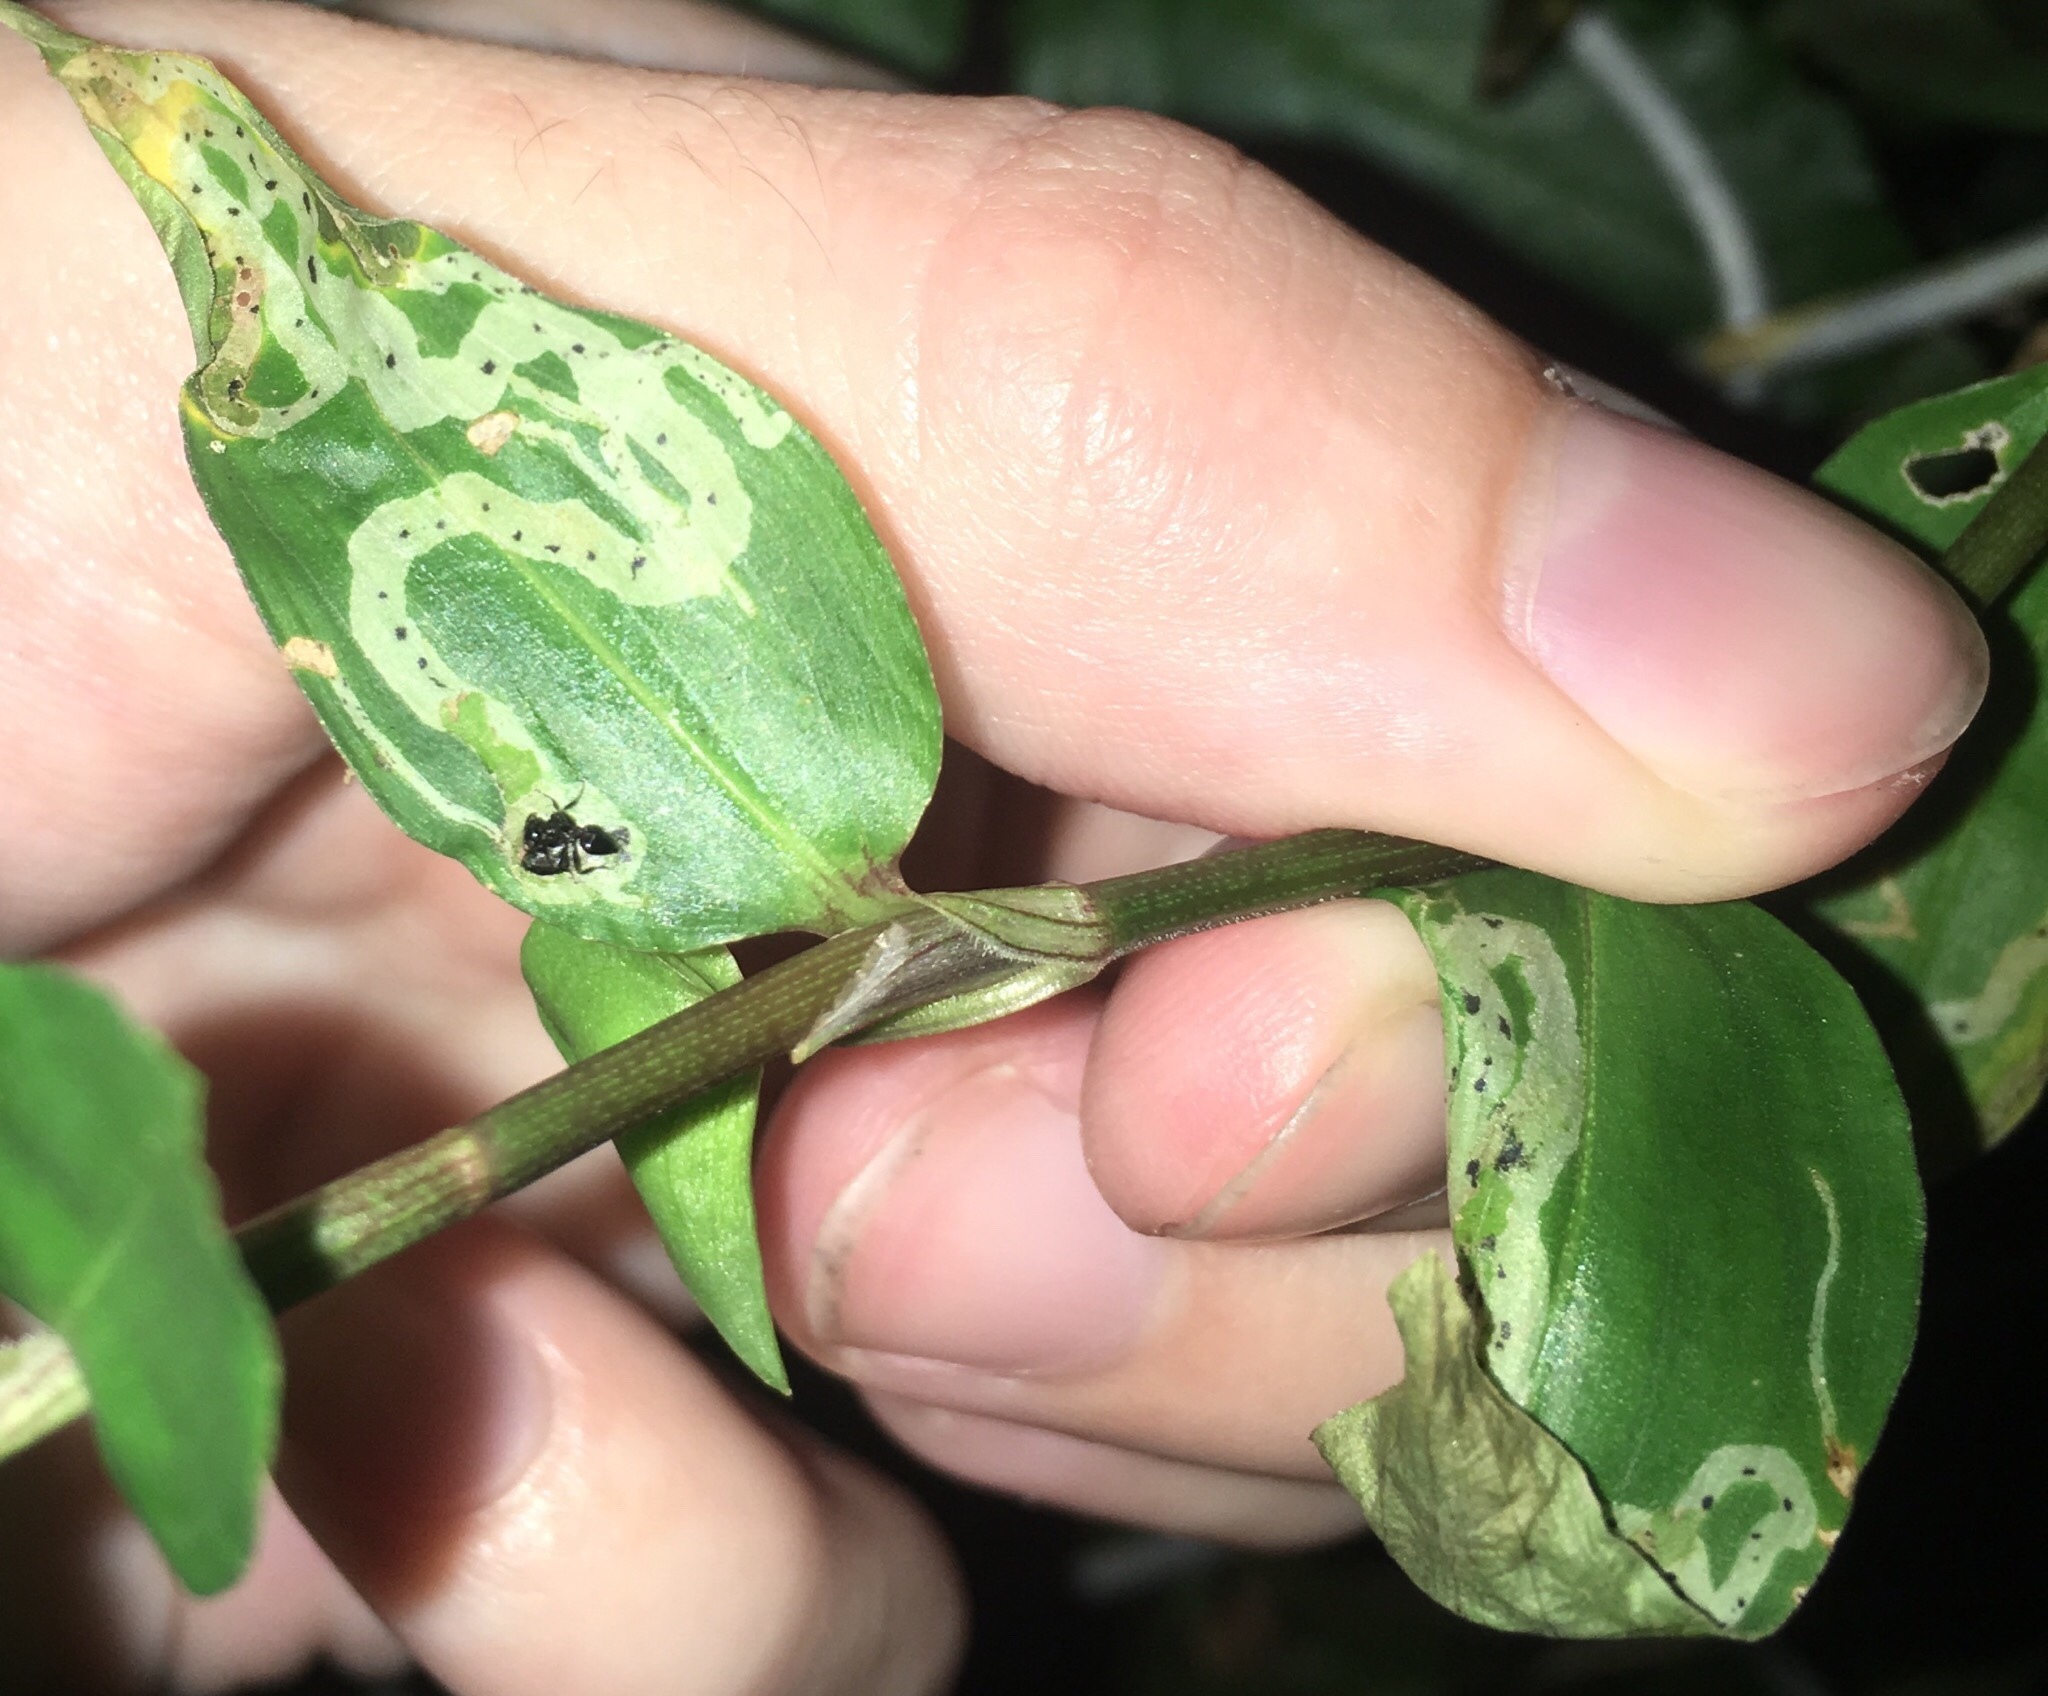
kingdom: Animalia
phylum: Arthropoda
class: Insecta
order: Diptera
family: Agromyzidae
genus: Liriomyza
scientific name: Liriomyza commelinae
